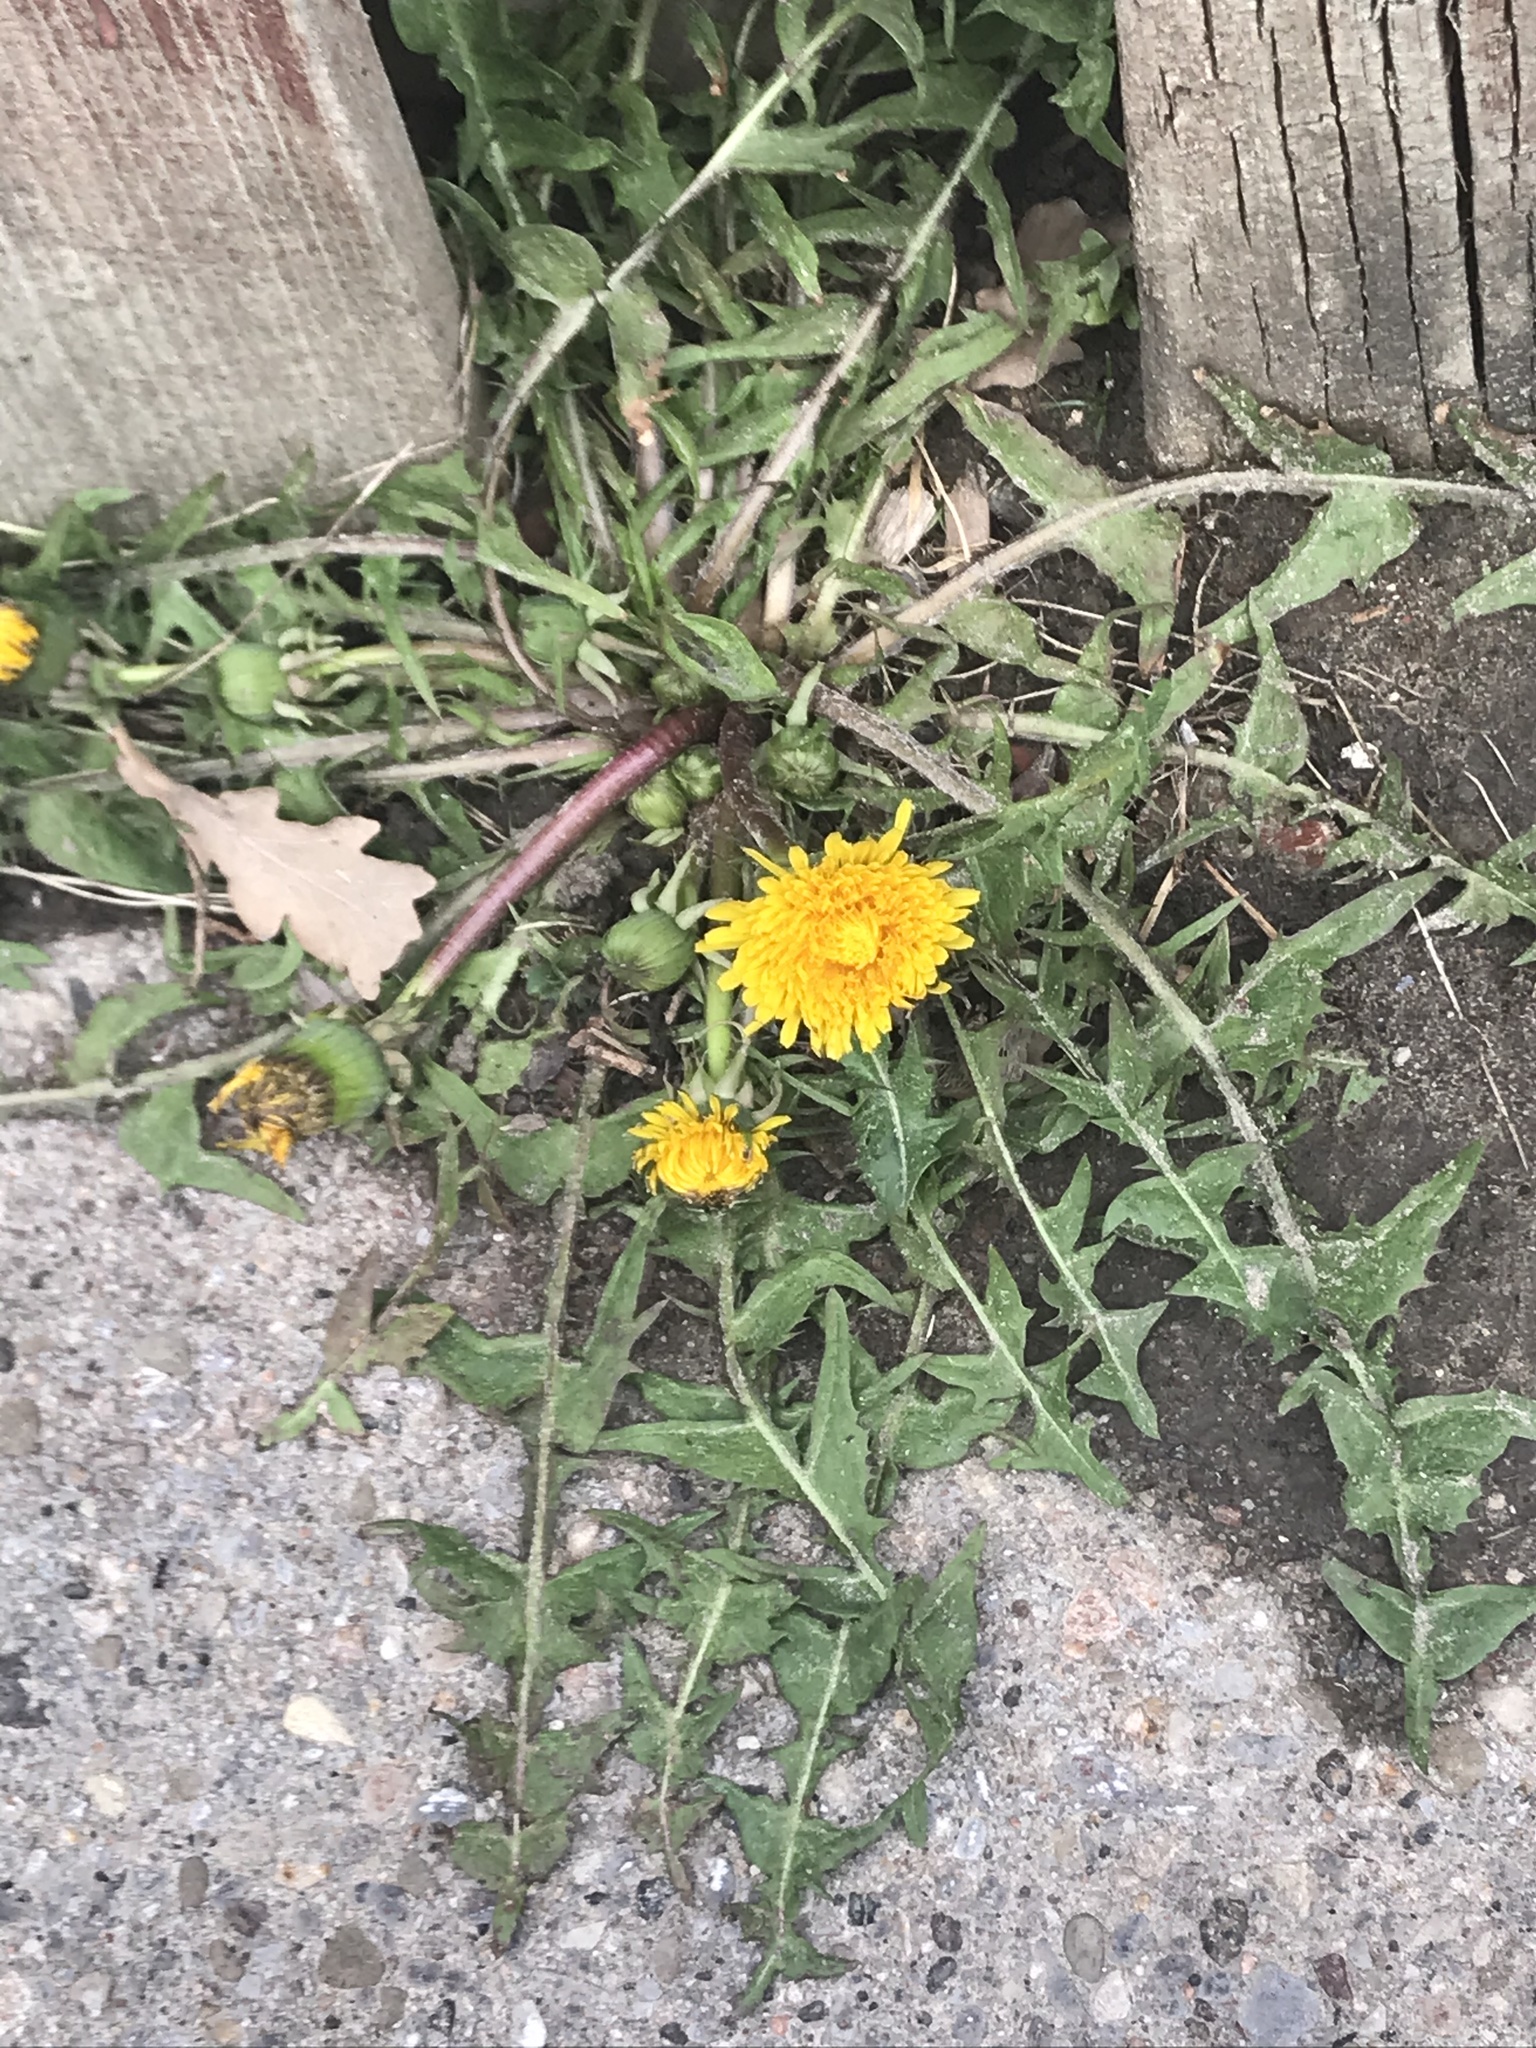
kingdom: Plantae
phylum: Tracheophyta
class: Magnoliopsida
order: Asterales
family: Asteraceae
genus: Taraxacum
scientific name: Taraxacum officinale
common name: Common dandelion
